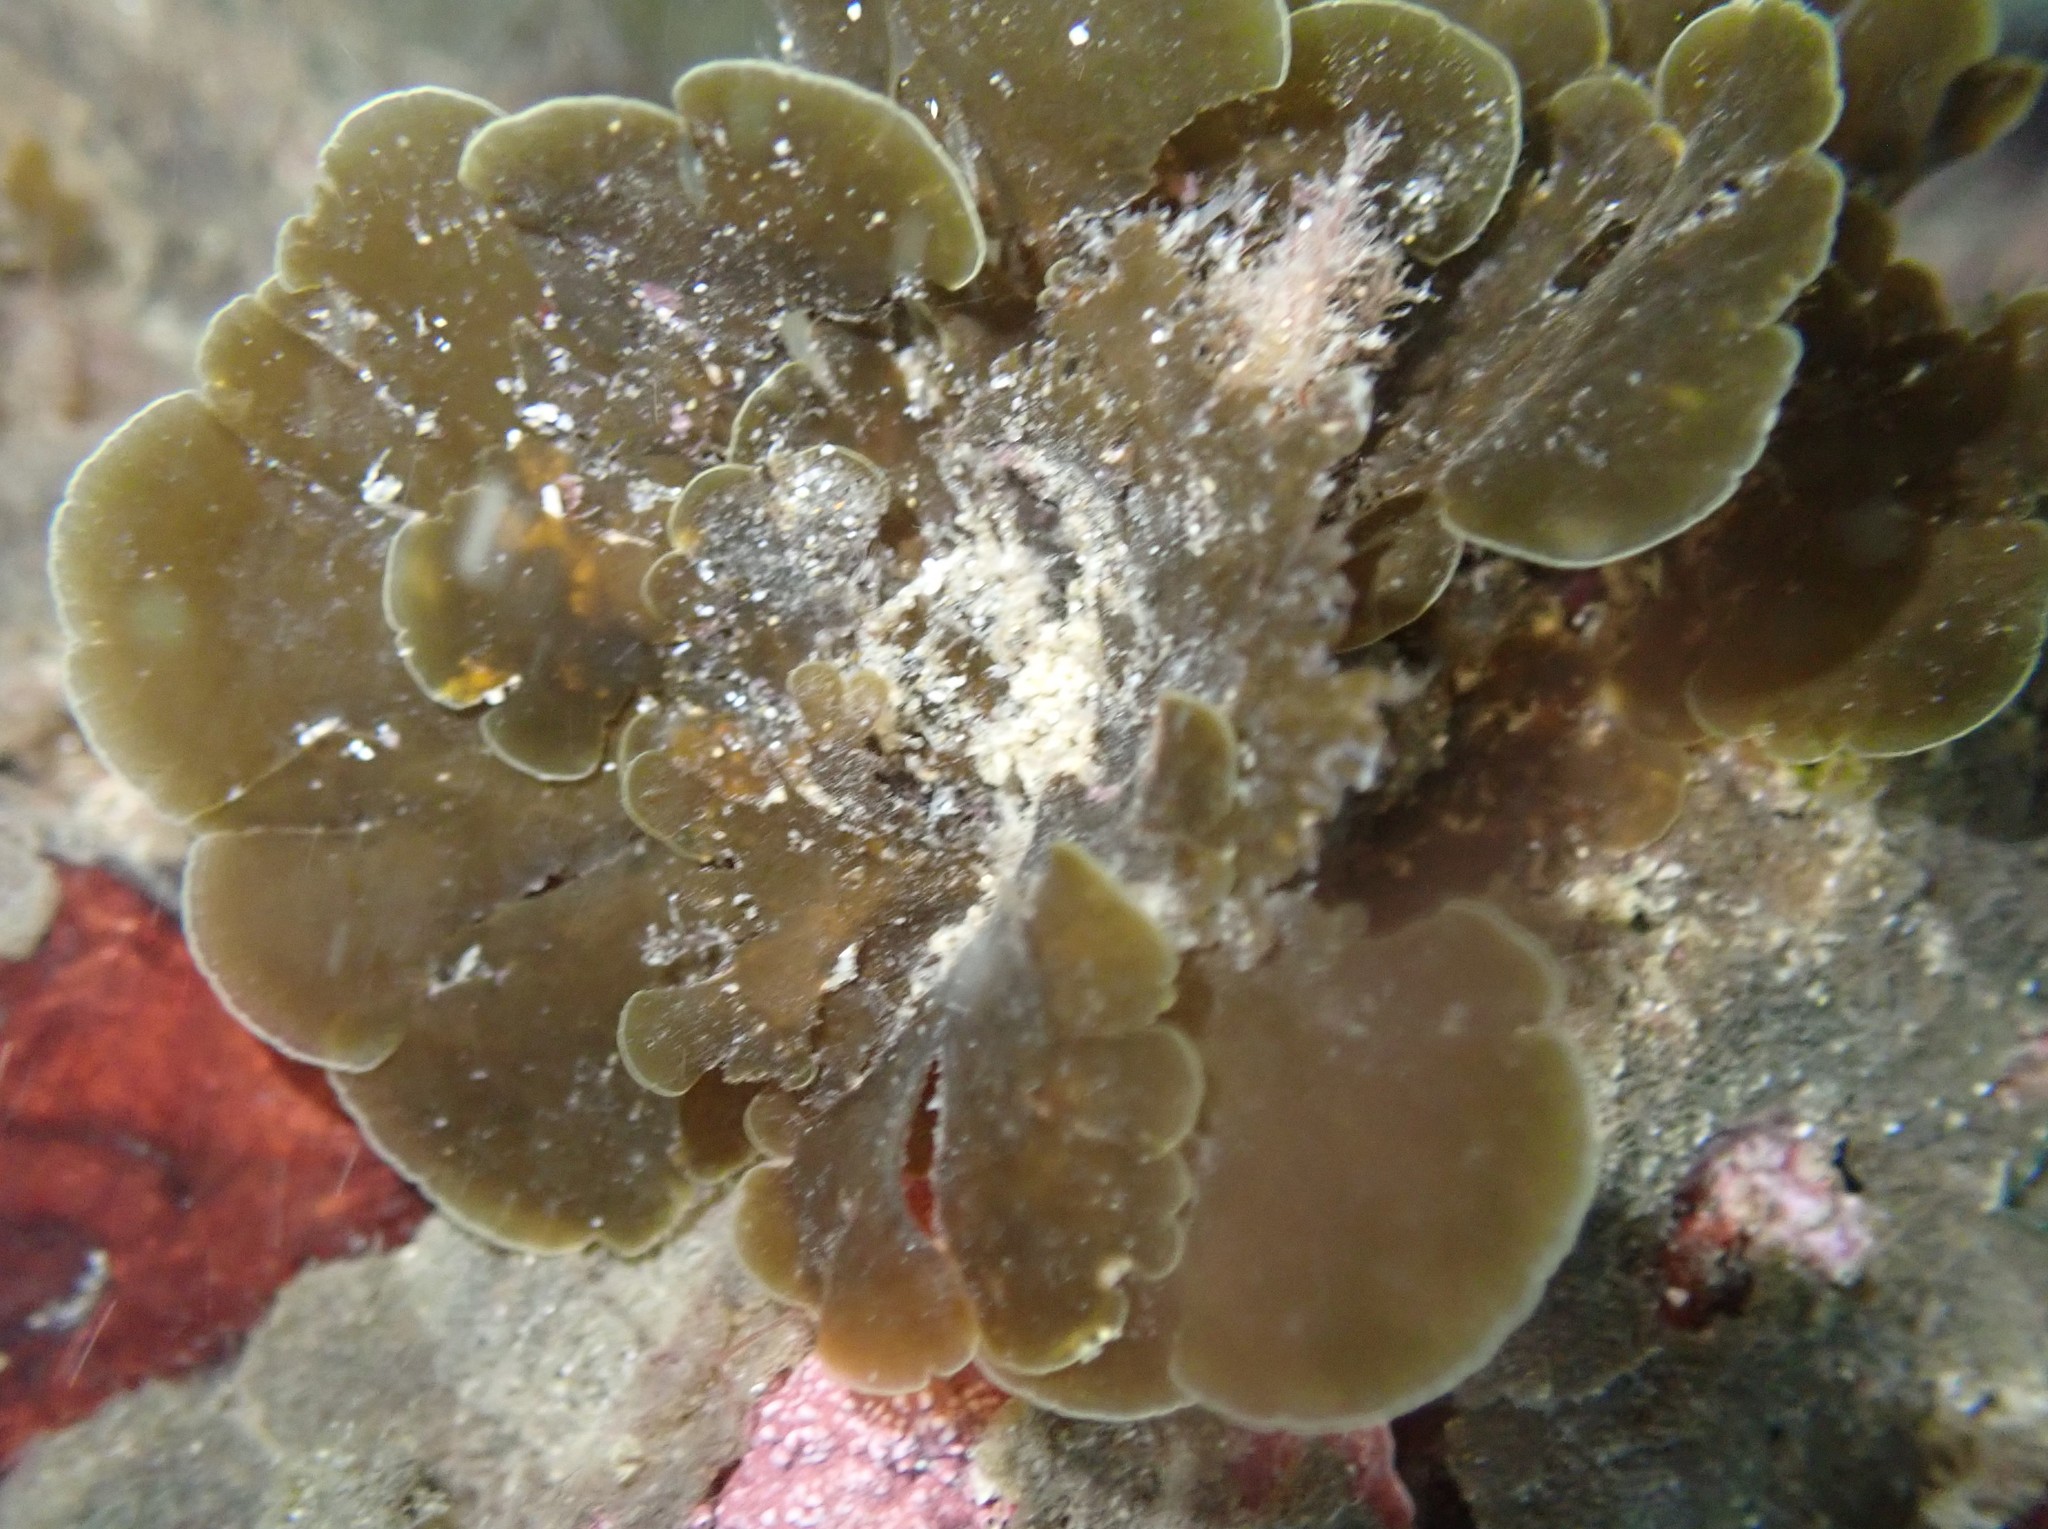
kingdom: Chromista
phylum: Ochrophyta
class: Phaeophyceae
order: Dictyotales
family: Dictyotaceae
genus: Zonaria
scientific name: Zonaria aureomarginata
